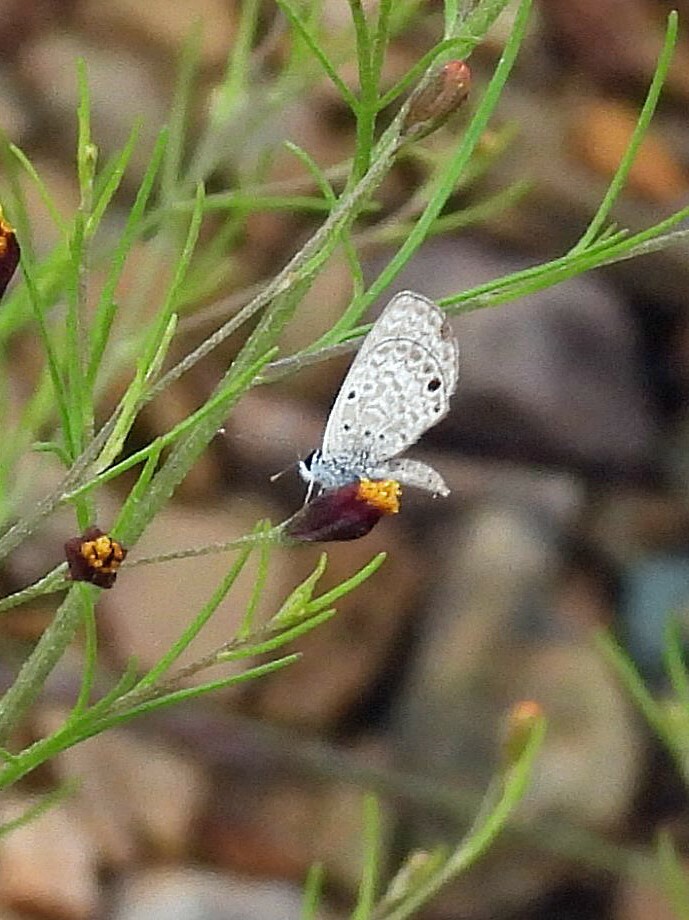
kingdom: Animalia
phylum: Arthropoda
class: Insecta
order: Lepidoptera
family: Lycaenidae
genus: Hemiargus
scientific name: Hemiargus hanno
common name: Common blue
